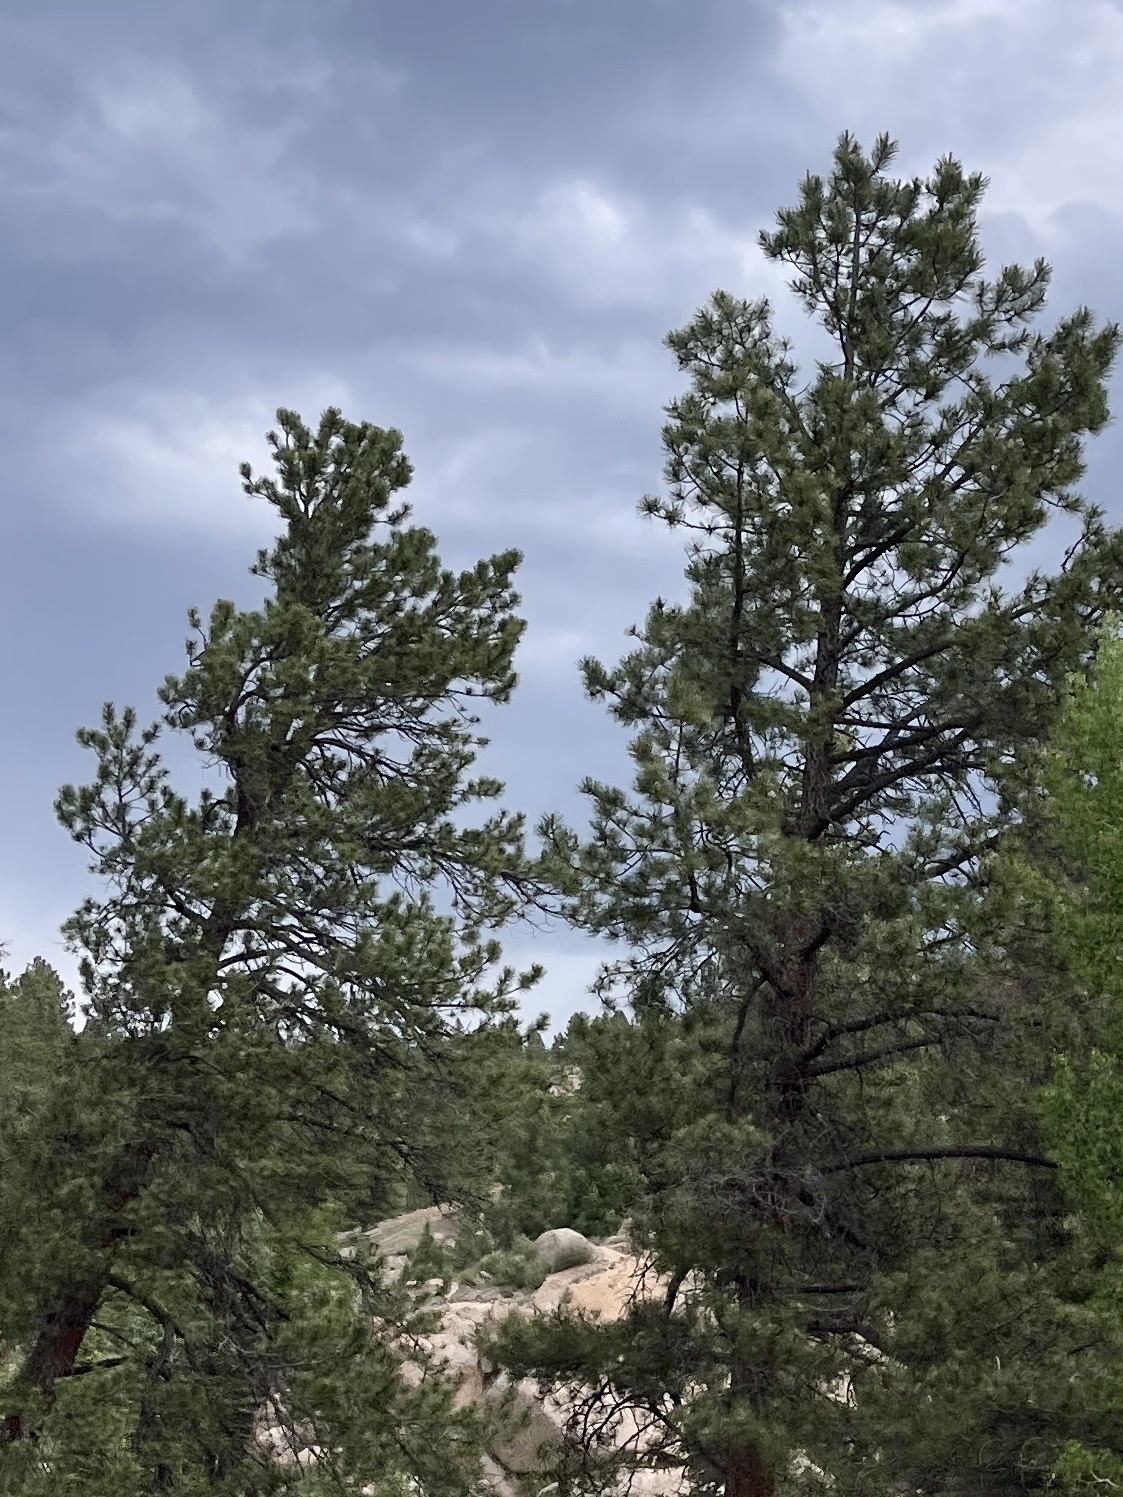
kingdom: Plantae
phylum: Tracheophyta
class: Pinopsida
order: Pinales
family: Pinaceae
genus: Pinus
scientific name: Pinus ponderosa
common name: Western yellow-pine
